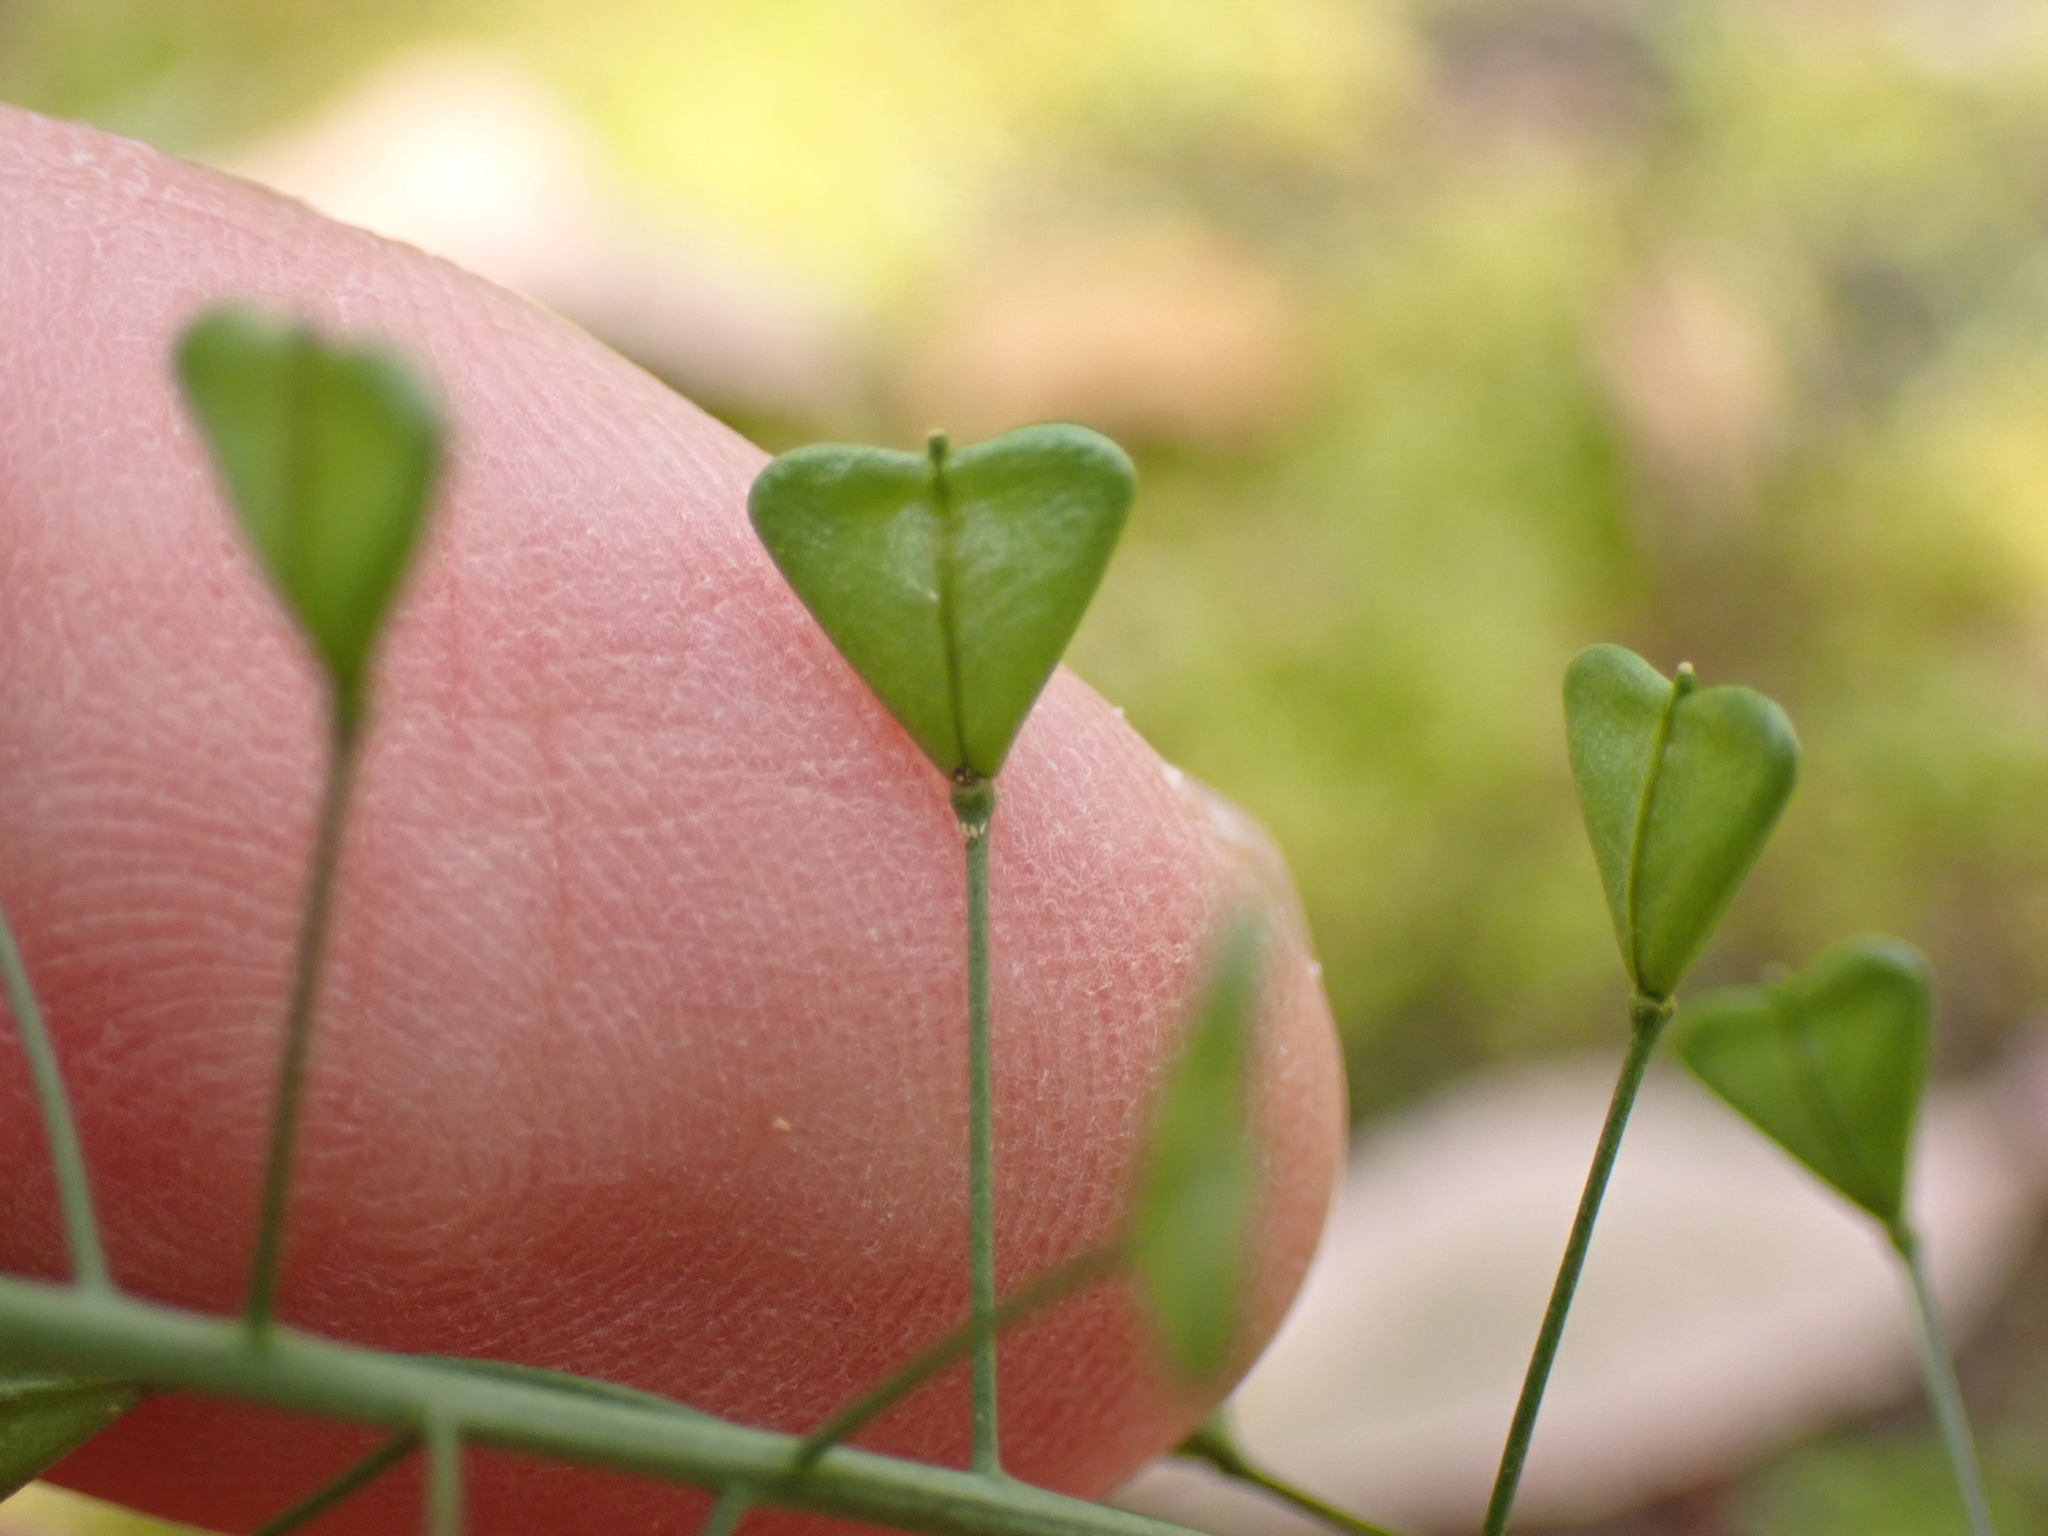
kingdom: Plantae
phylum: Tracheophyta
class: Magnoliopsida
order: Brassicales
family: Brassicaceae
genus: Capsella
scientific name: Capsella bursa-pastoris
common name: Shepherd's purse
